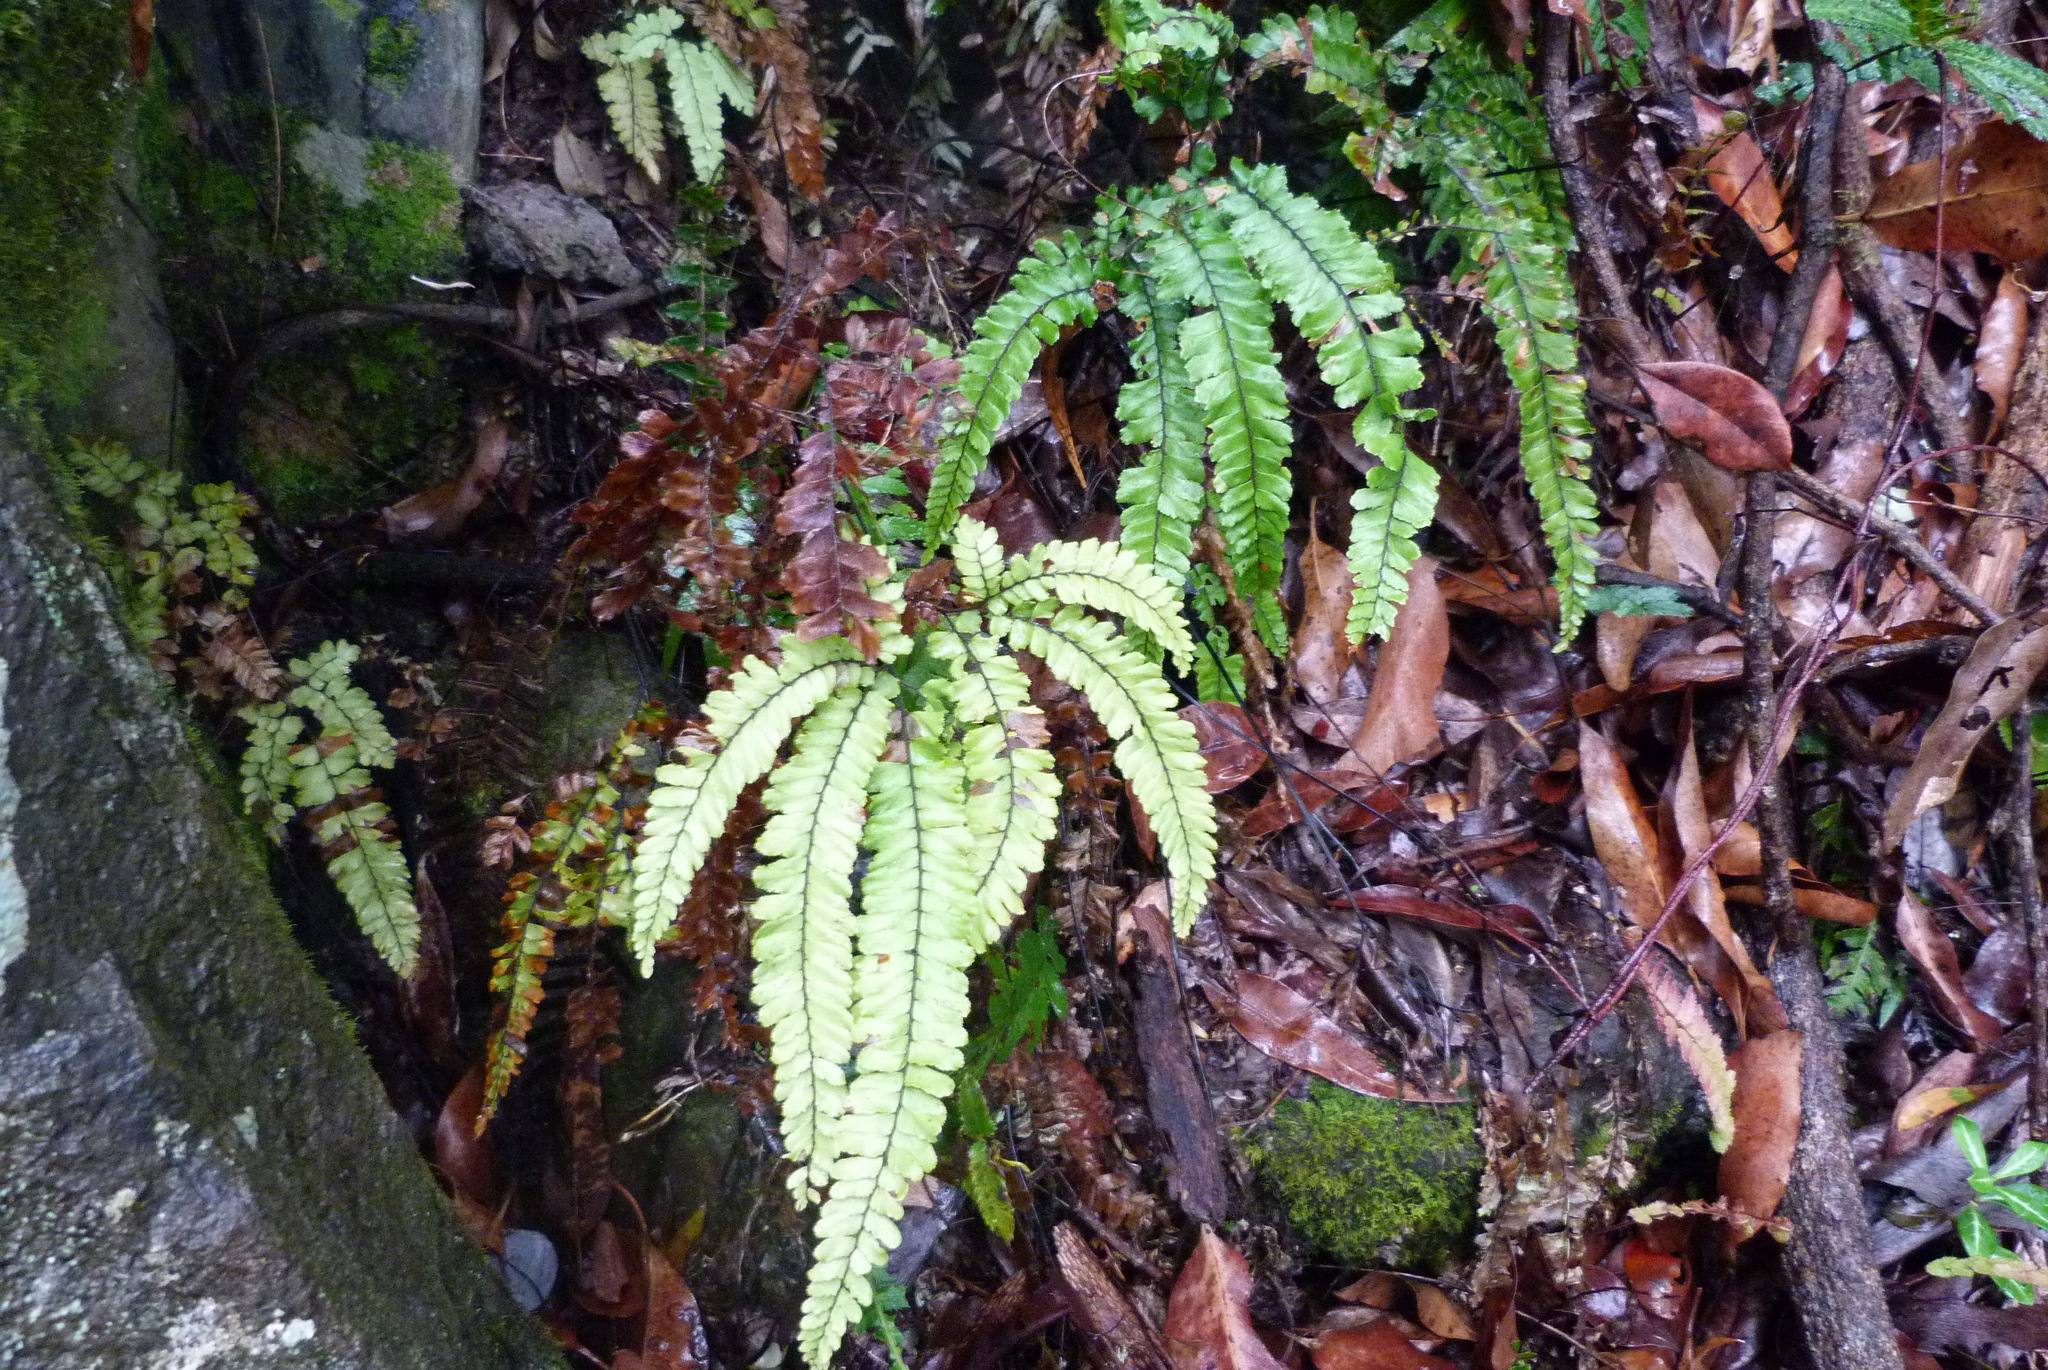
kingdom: Plantae
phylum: Tracheophyta
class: Polypodiopsida
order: Polypodiales
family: Pteridaceae
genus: Adiantum
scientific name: Adiantum hispidulum
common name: Rough maidenhair
